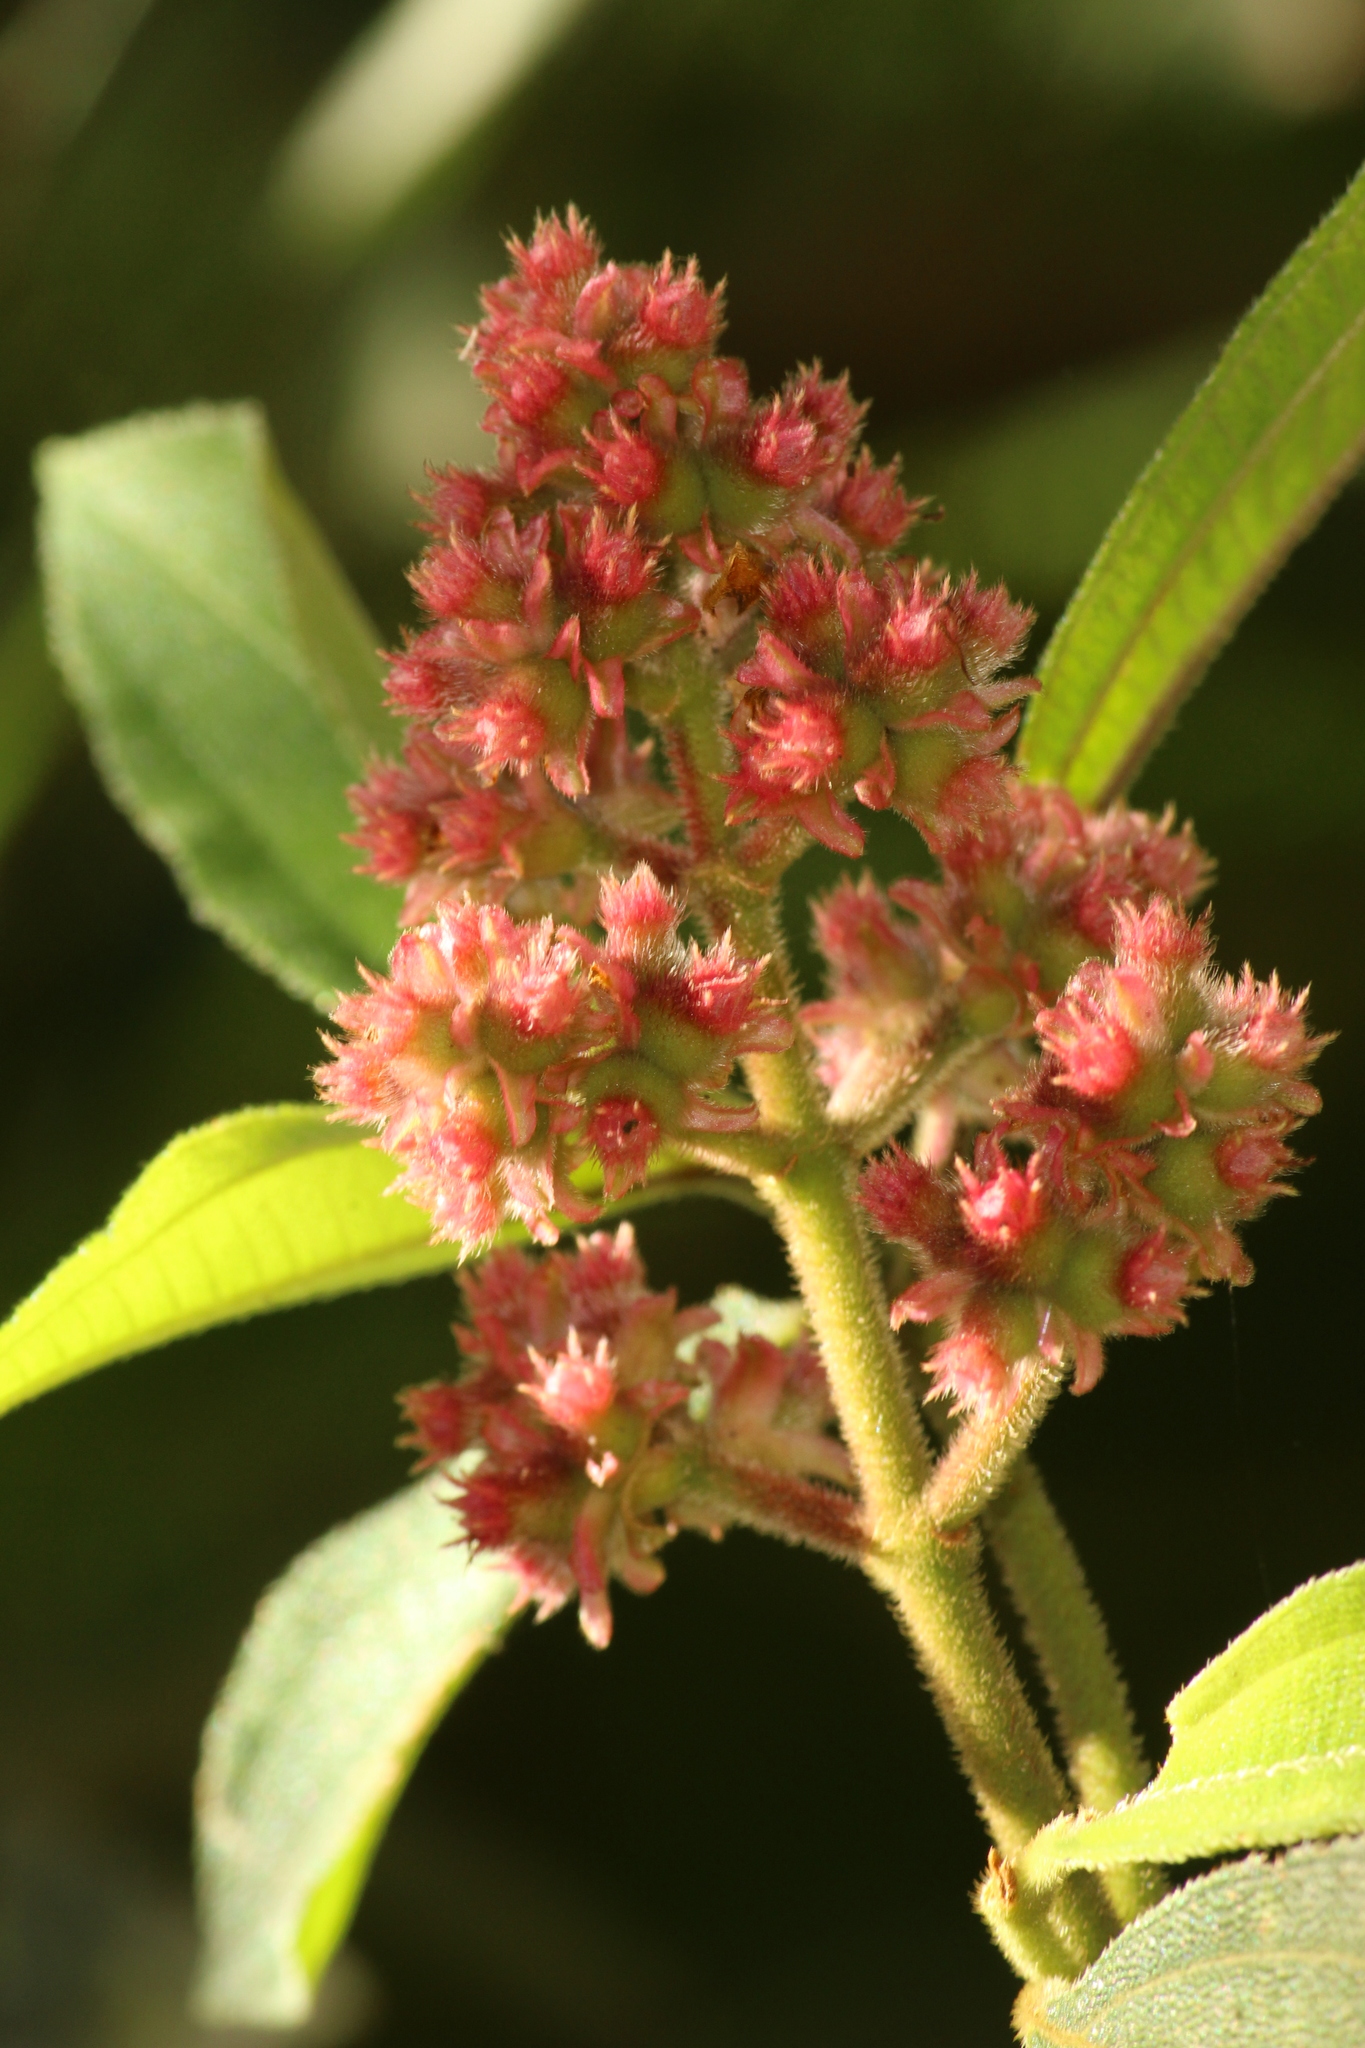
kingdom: Plantae
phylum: Tracheophyta
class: Magnoliopsida
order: Myrtales
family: Melastomataceae
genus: Miconia
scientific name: Miconia melastomoides
